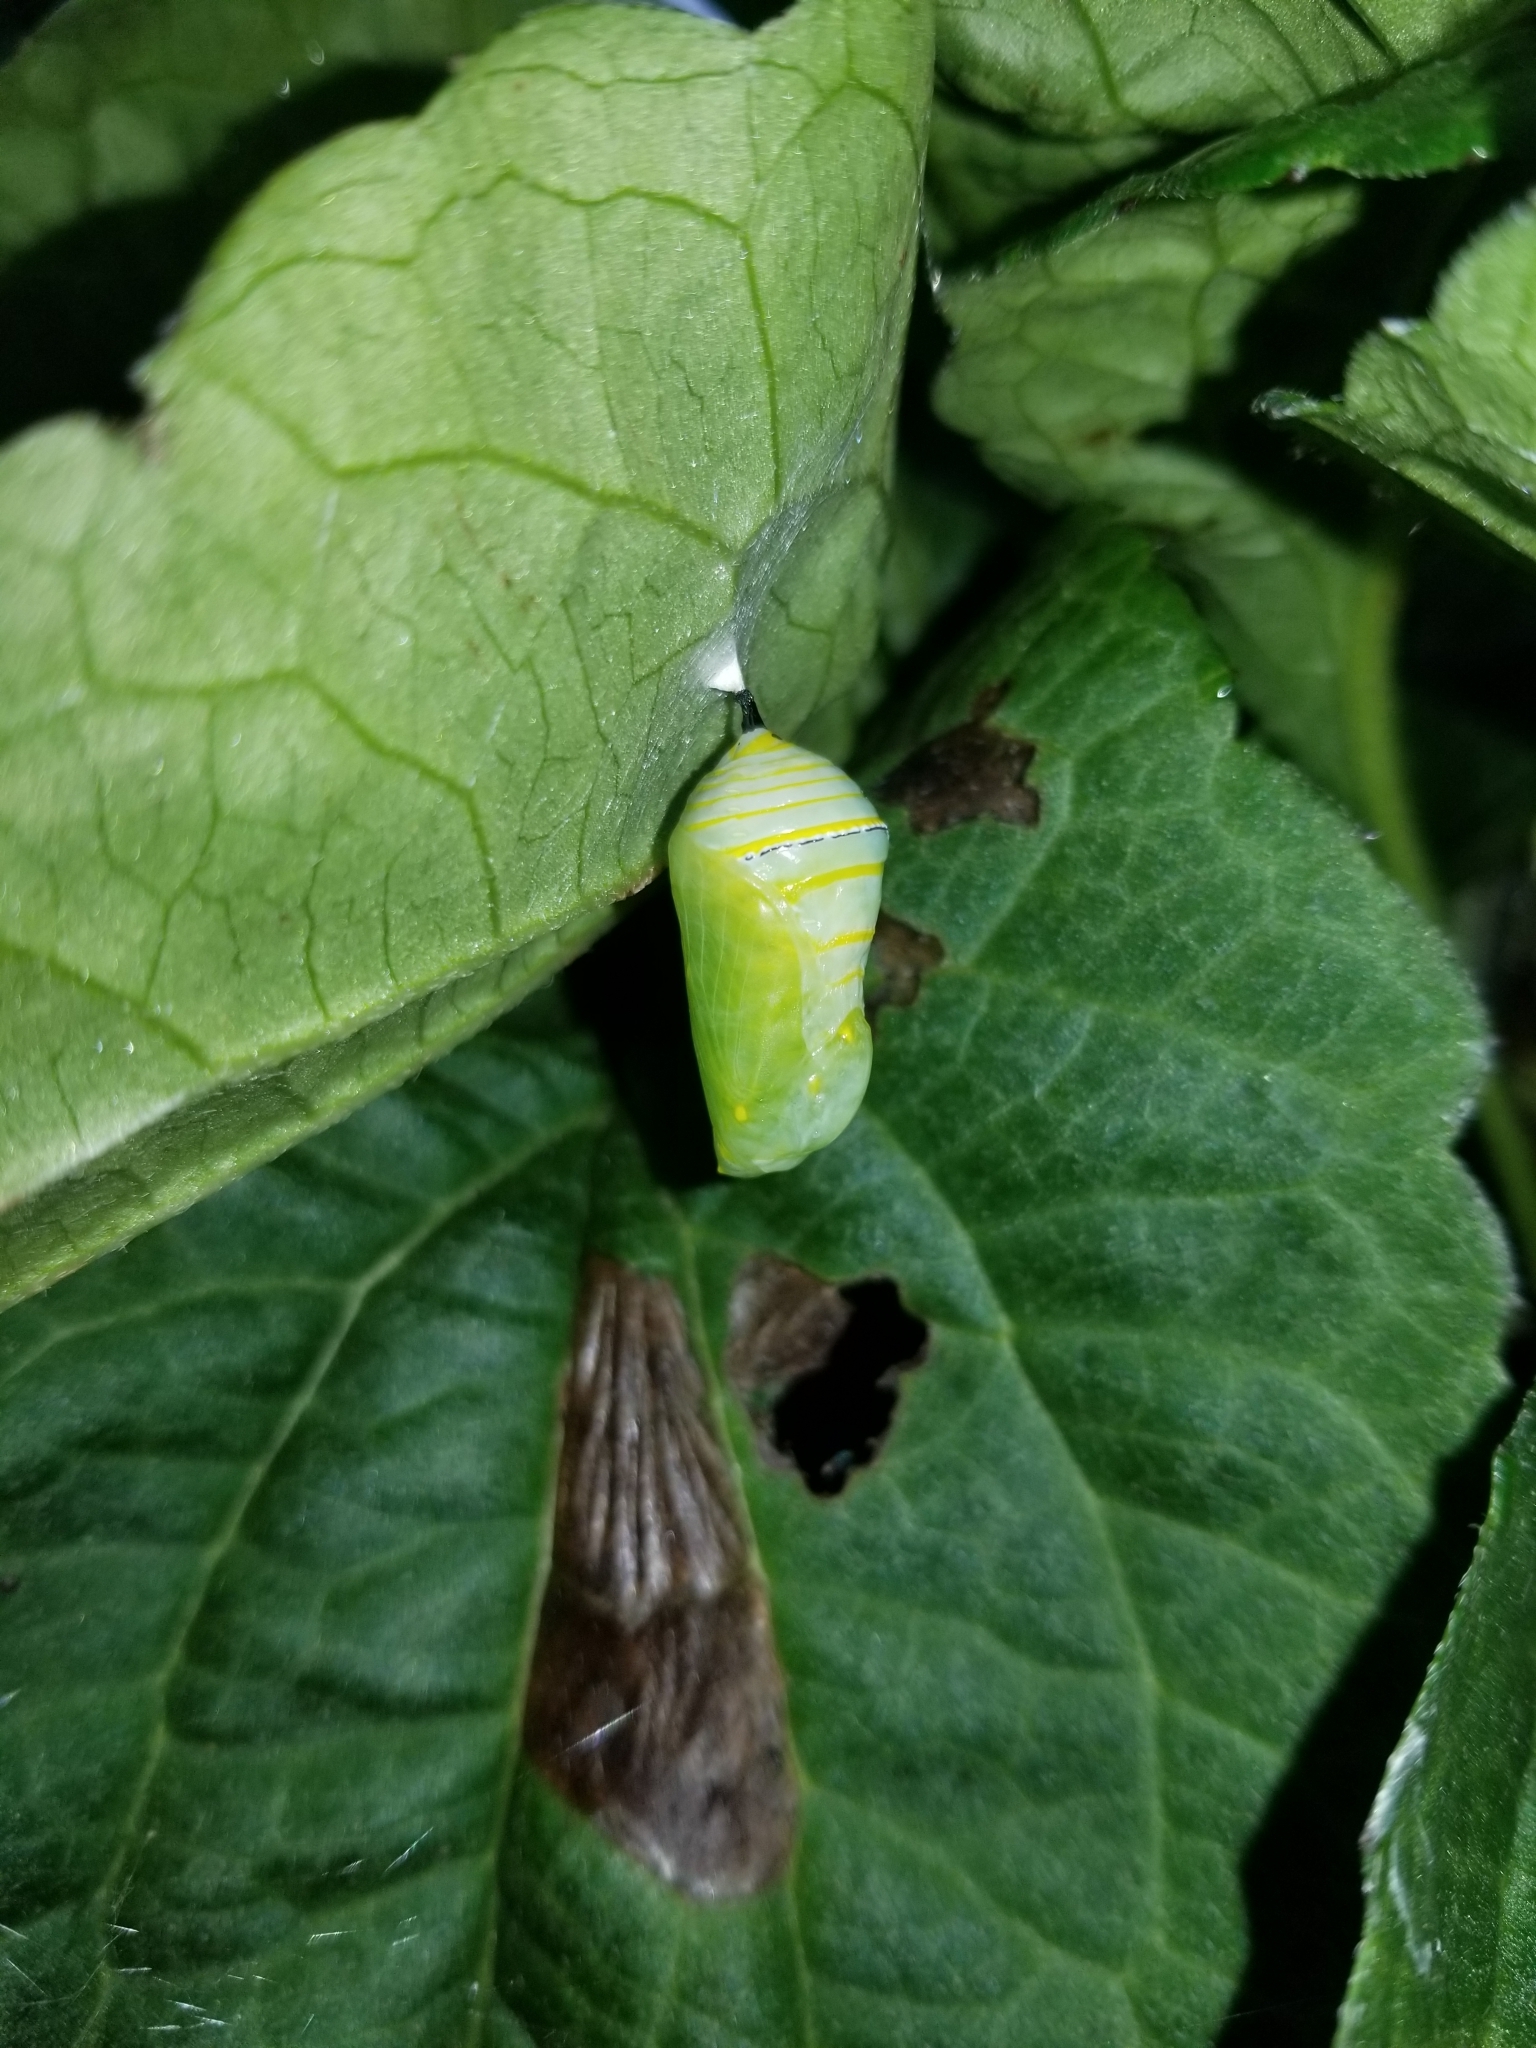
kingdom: Animalia
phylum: Arthropoda
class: Insecta
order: Lepidoptera
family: Nymphalidae
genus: Danaus
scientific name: Danaus plexippus
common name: Monarch
